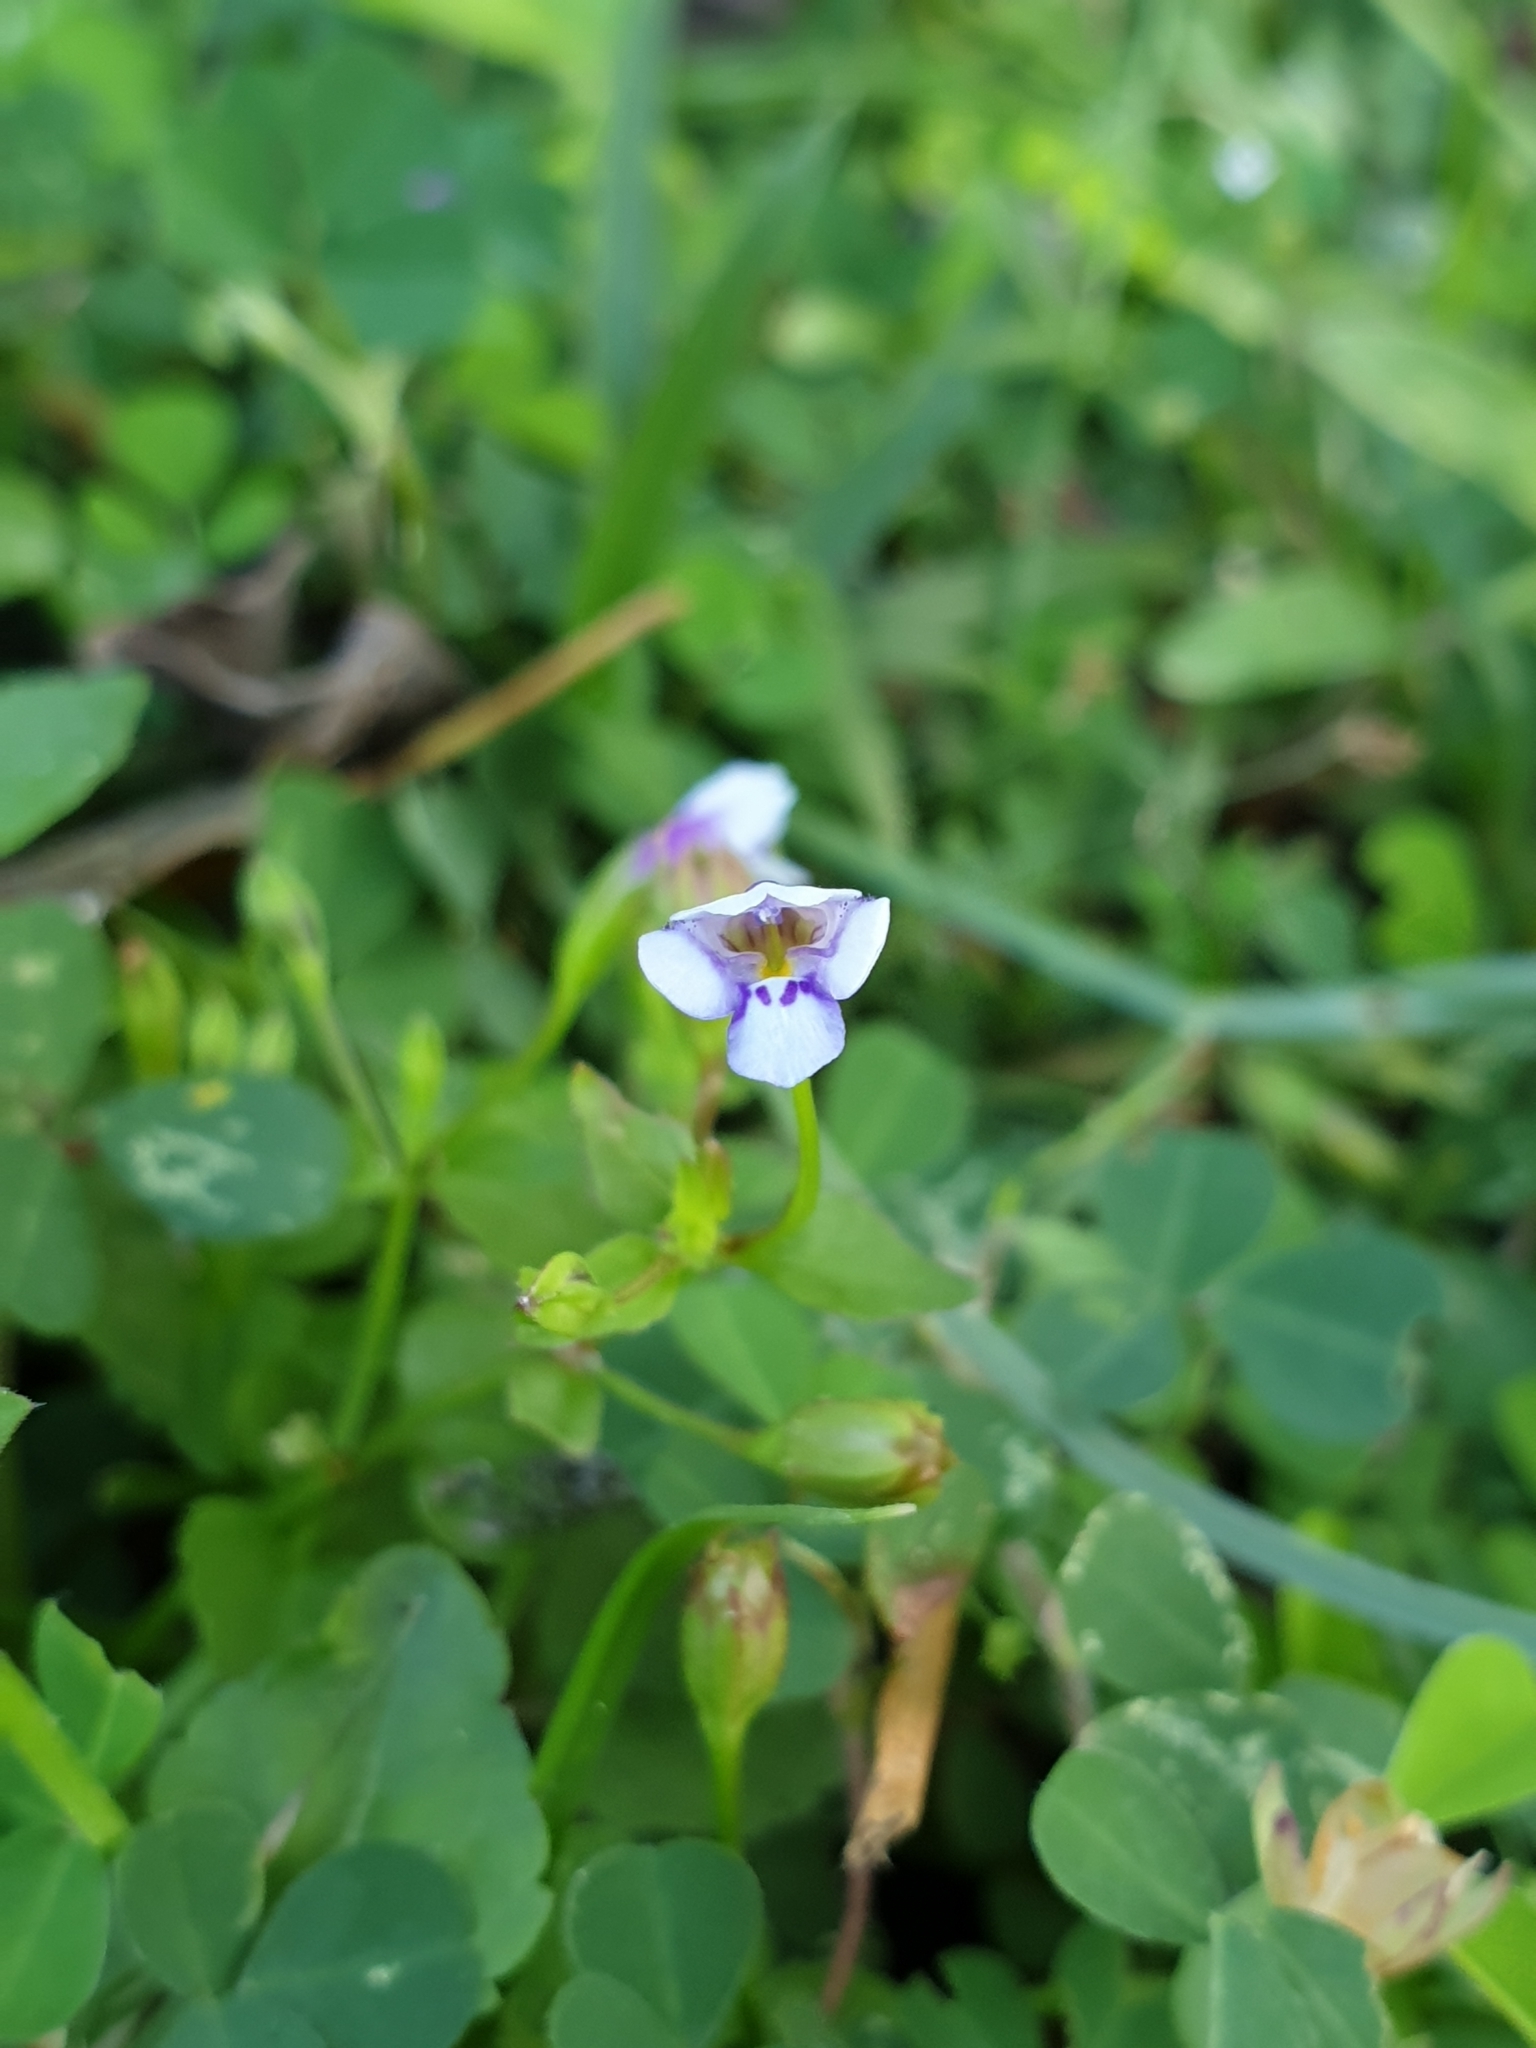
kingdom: Plantae
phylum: Tracheophyta
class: Magnoliopsida
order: Lamiales
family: Linderniaceae
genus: Torenia
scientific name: Torenia crustacea
